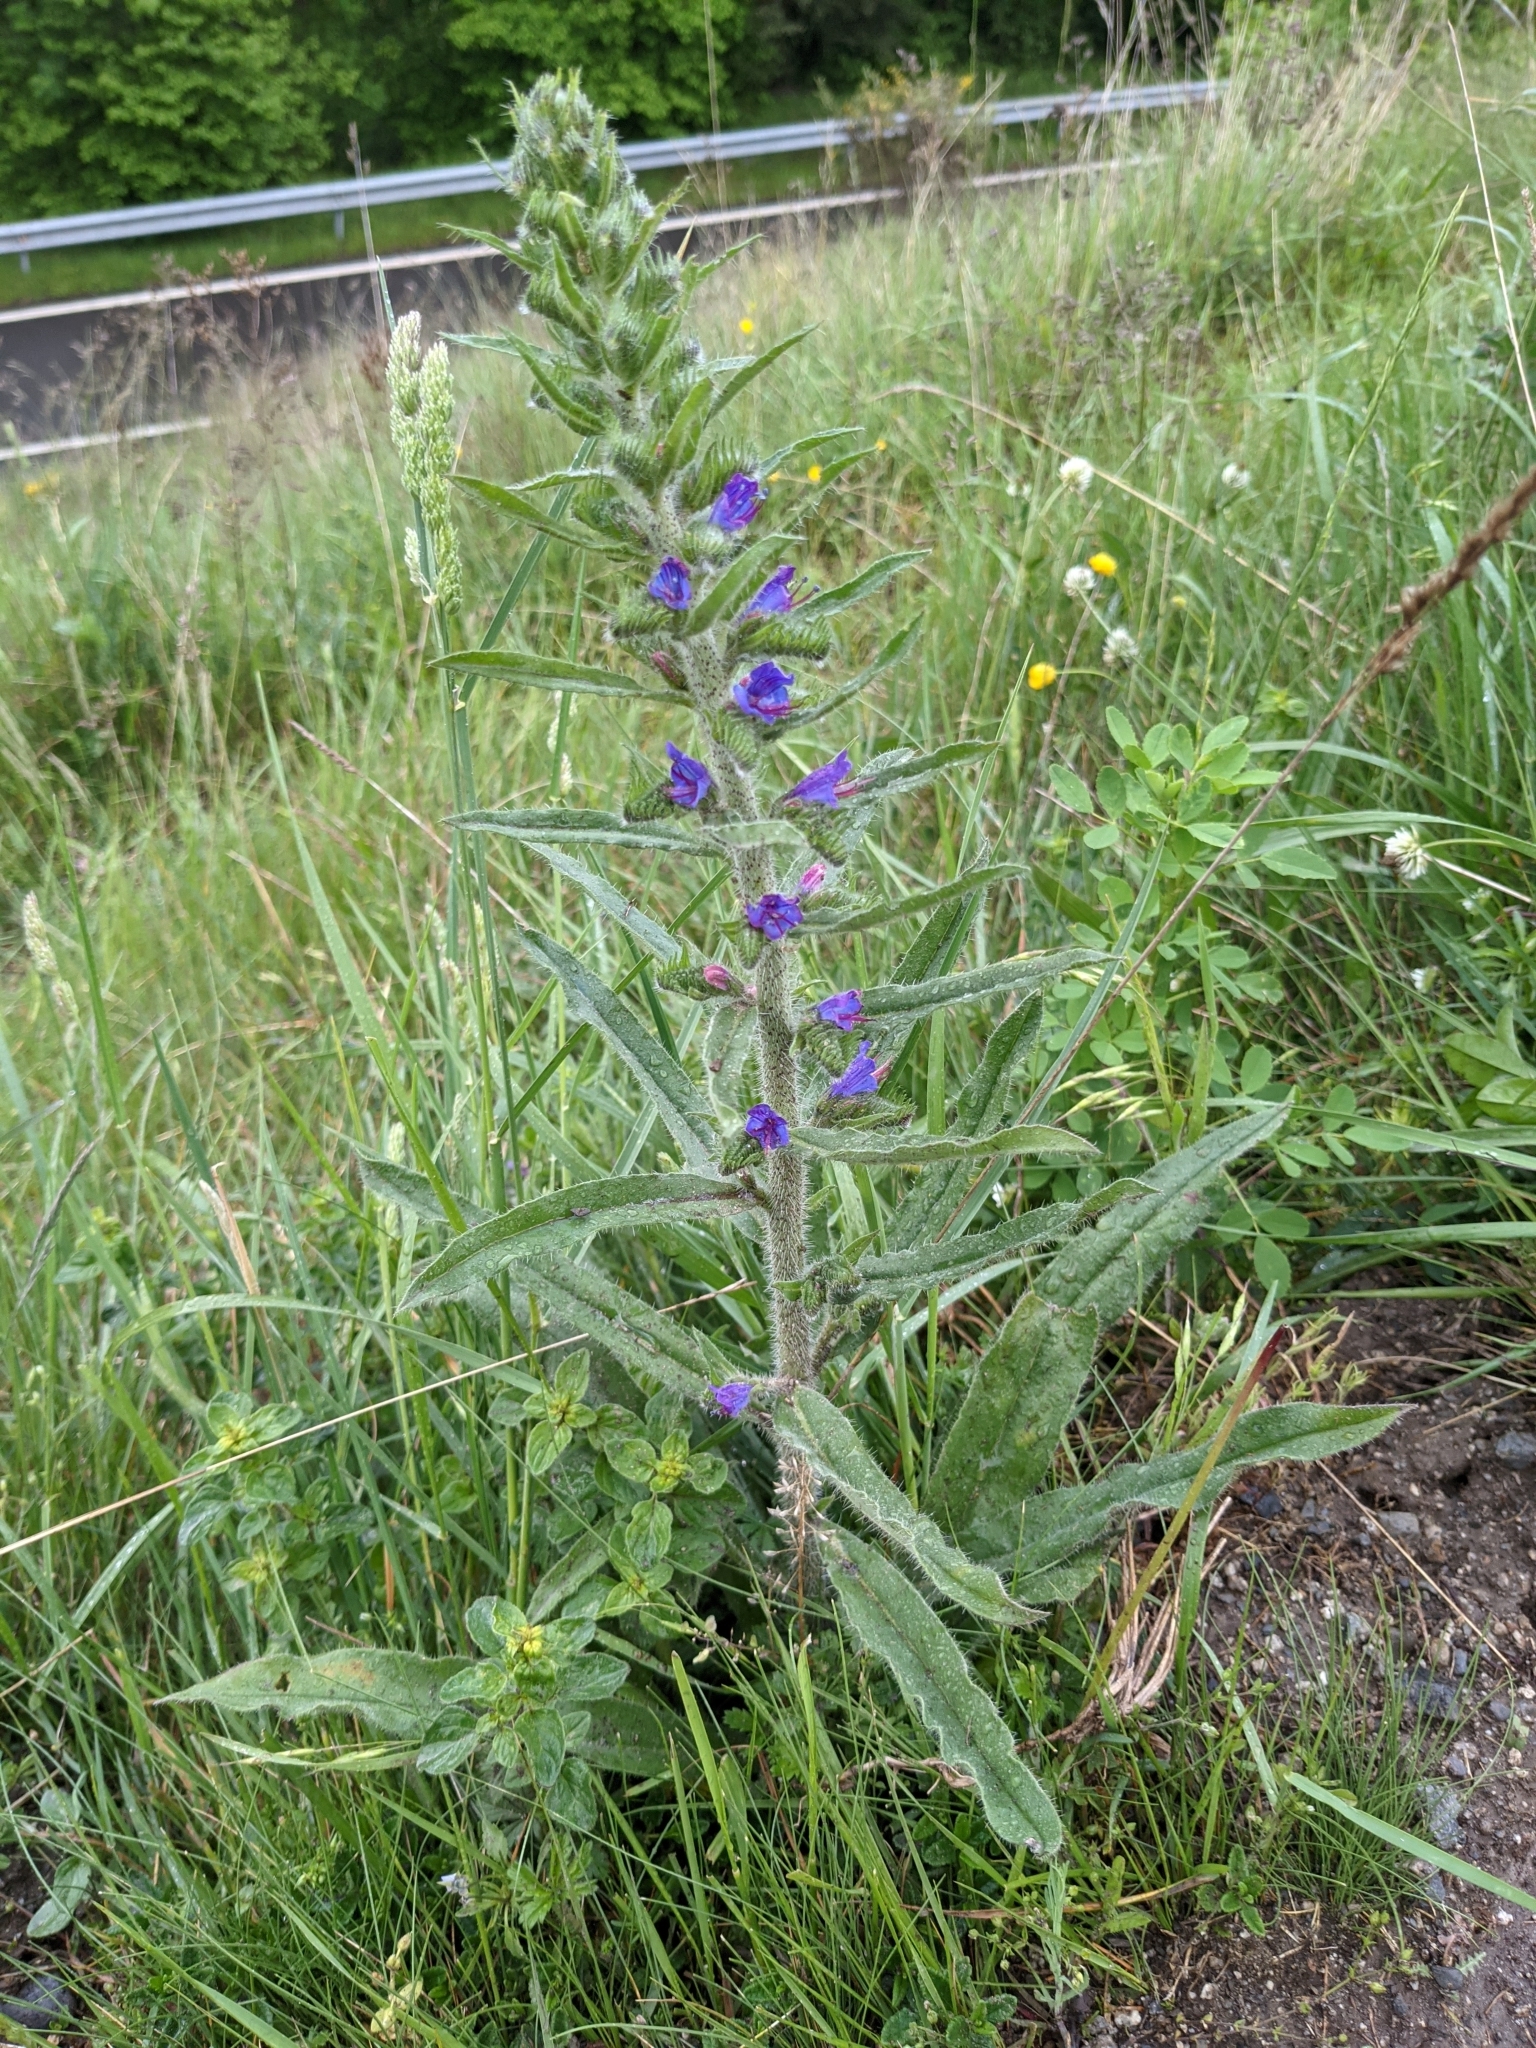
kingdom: Plantae
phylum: Tracheophyta
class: Magnoliopsida
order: Boraginales
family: Boraginaceae
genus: Echium
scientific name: Echium vulgare
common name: Common viper's bugloss
